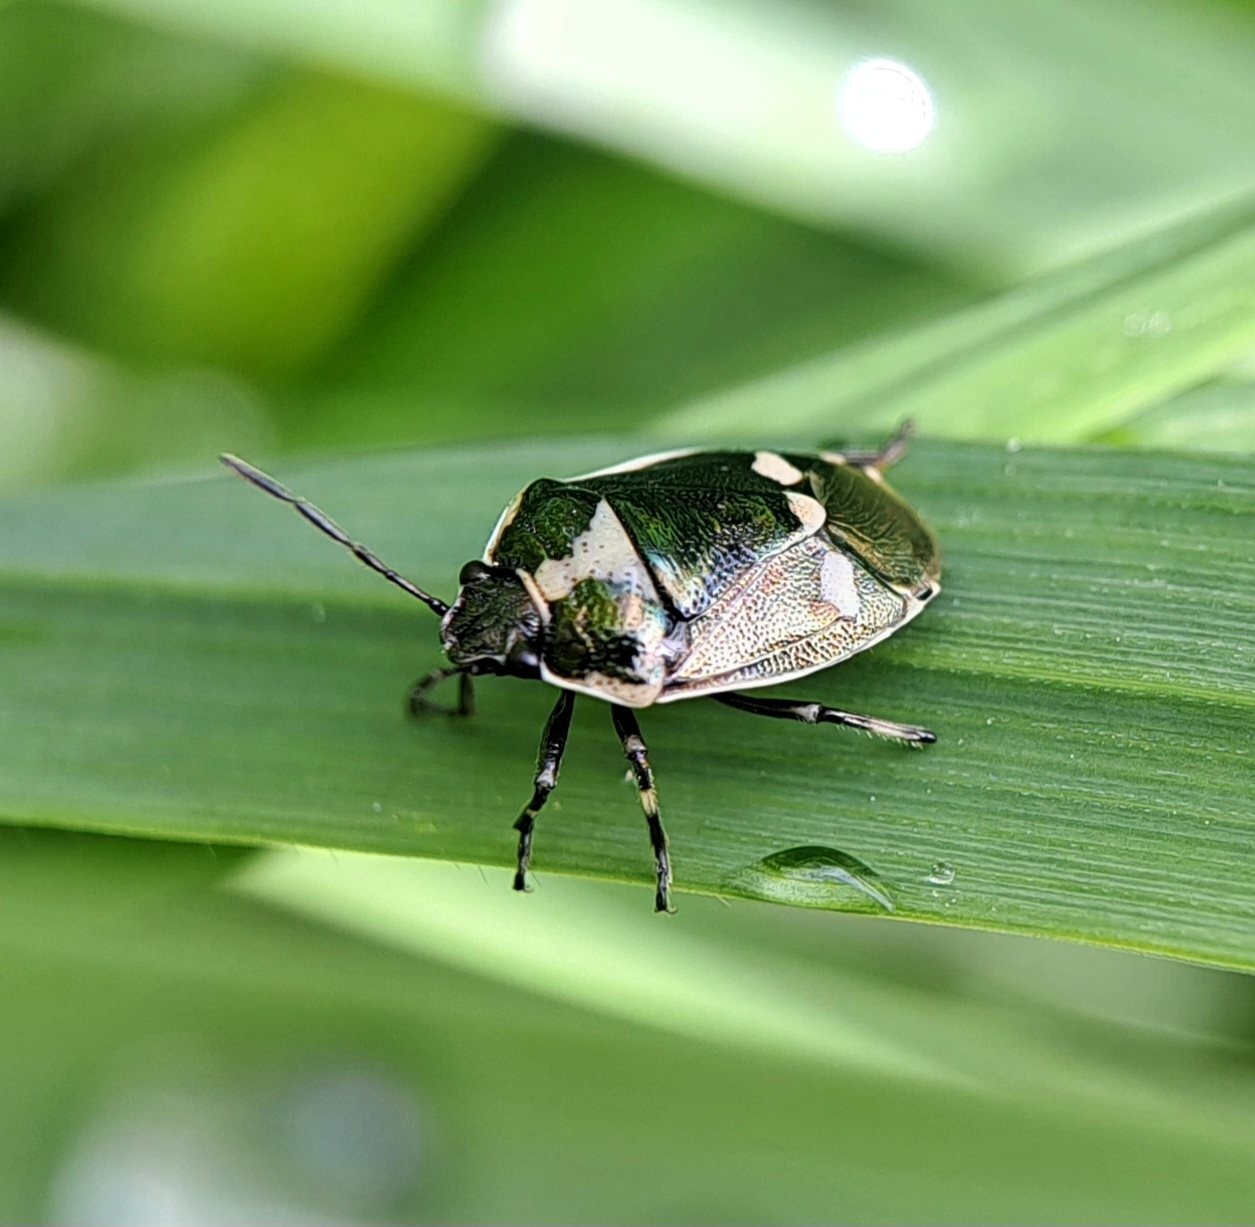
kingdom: Animalia
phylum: Arthropoda
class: Insecta
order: Hemiptera
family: Pentatomidae
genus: Eurydema
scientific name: Eurydema oleracea
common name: Cabbage bug
